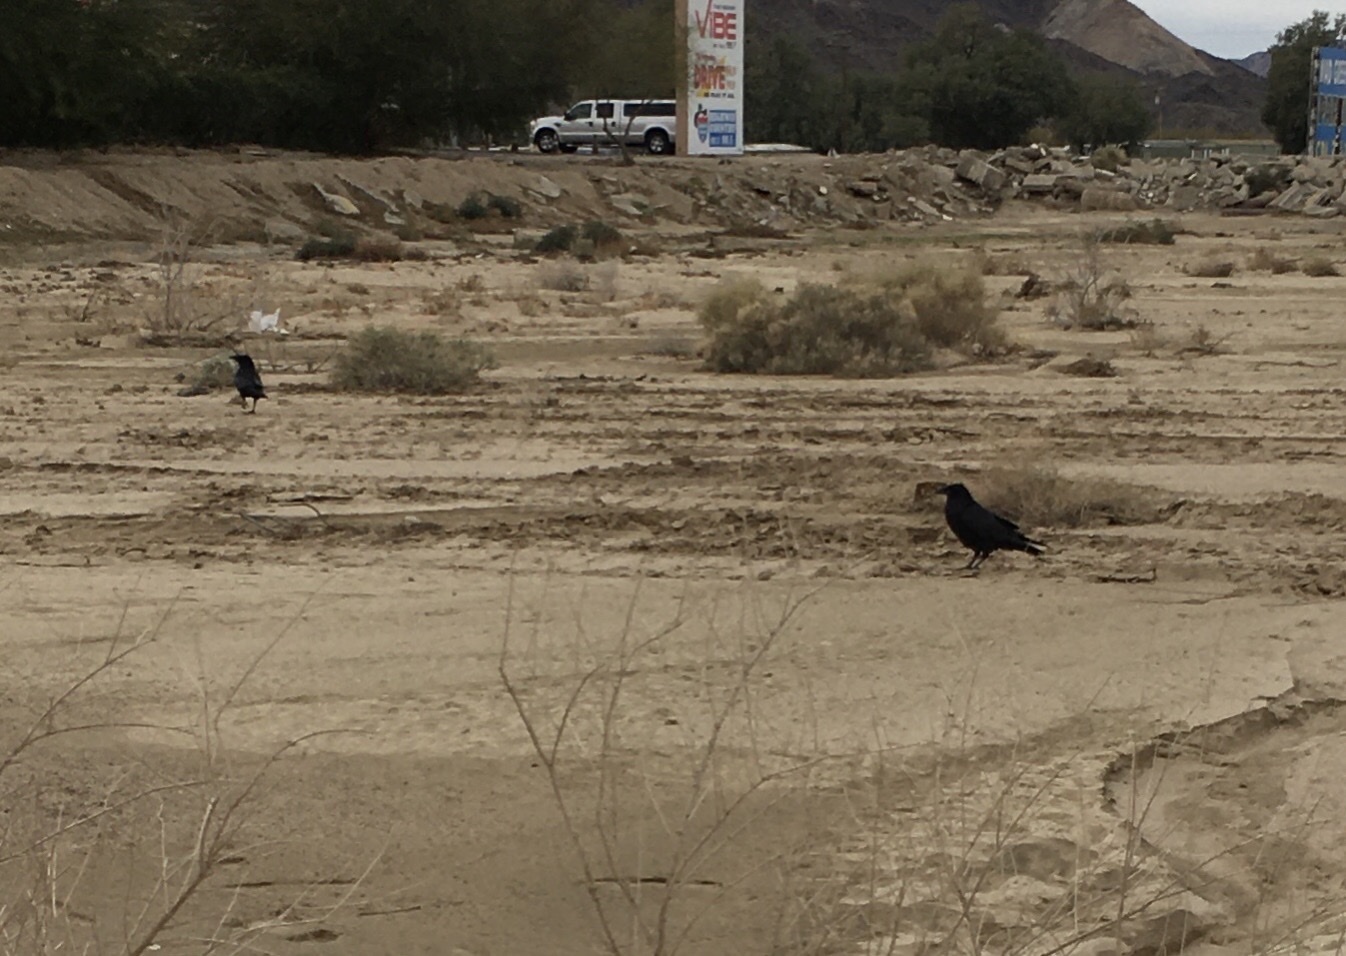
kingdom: Animalia
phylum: Chordata
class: Aves
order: Passeriformes
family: Corvidae
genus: Corvus
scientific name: Corvus corax
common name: Common raven
